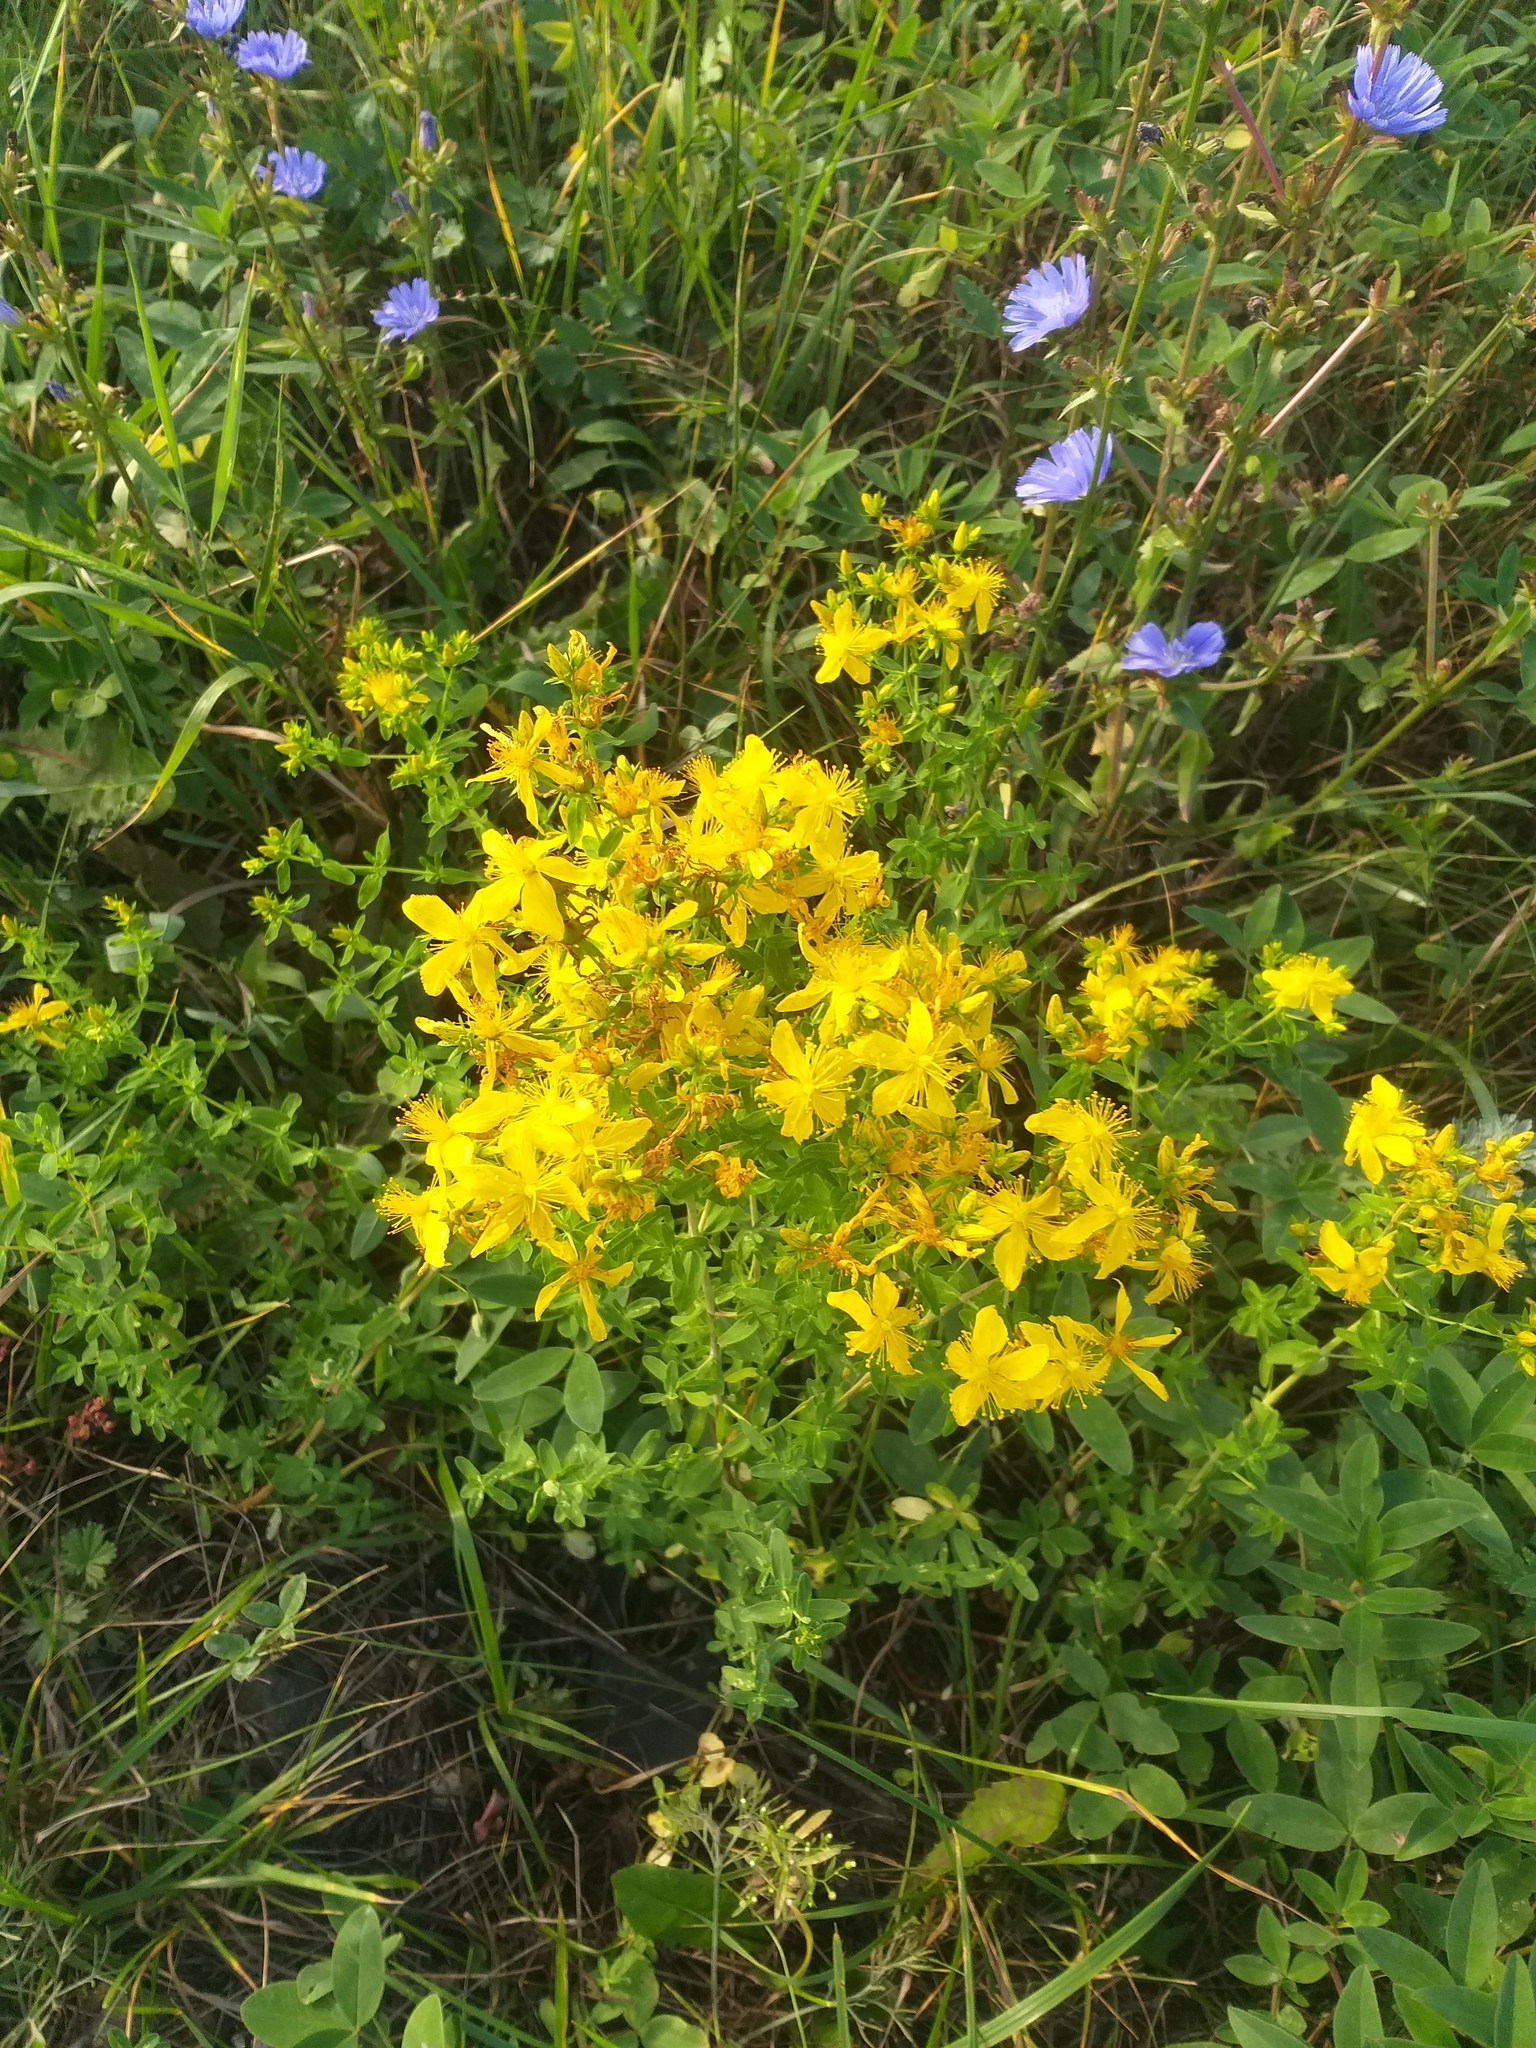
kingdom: Plantae
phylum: Tracheophyta
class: Magnoliopsida
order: Malpighiales
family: Hypericaceae
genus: Hypericum
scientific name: Hypericum perforatum
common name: Common st. johnswort
